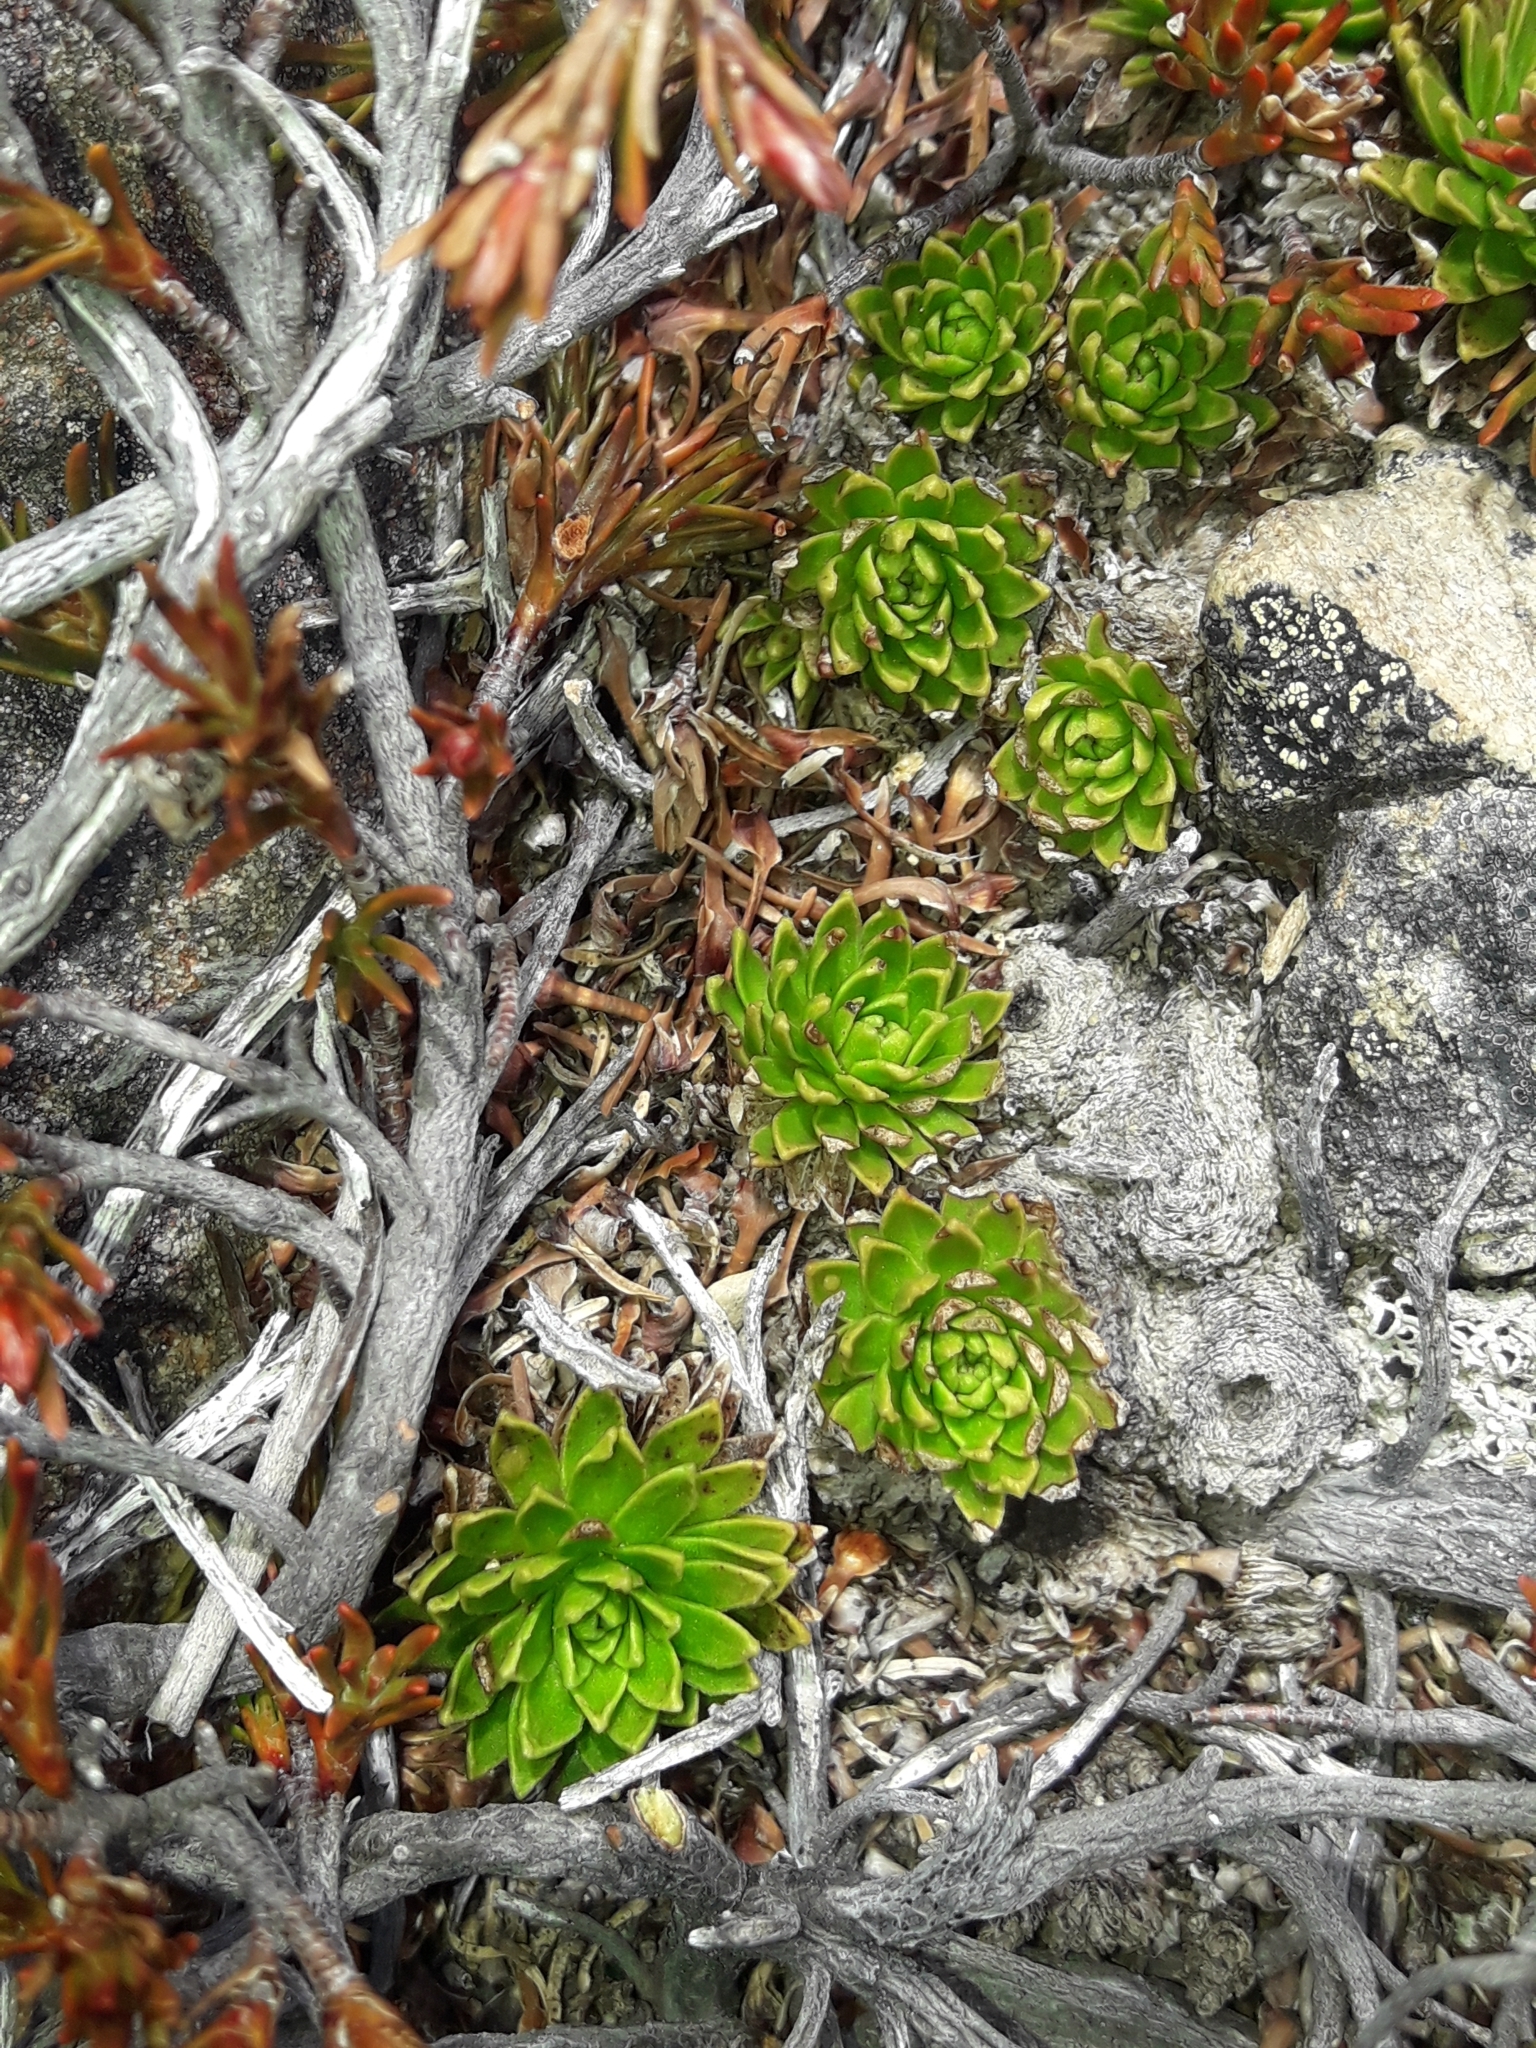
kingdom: Plantae
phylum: Tracheophyta
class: Magnoliopsida
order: Caryophyllales
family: Montiaceae
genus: Hectorella
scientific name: Hectorella caespitosa
